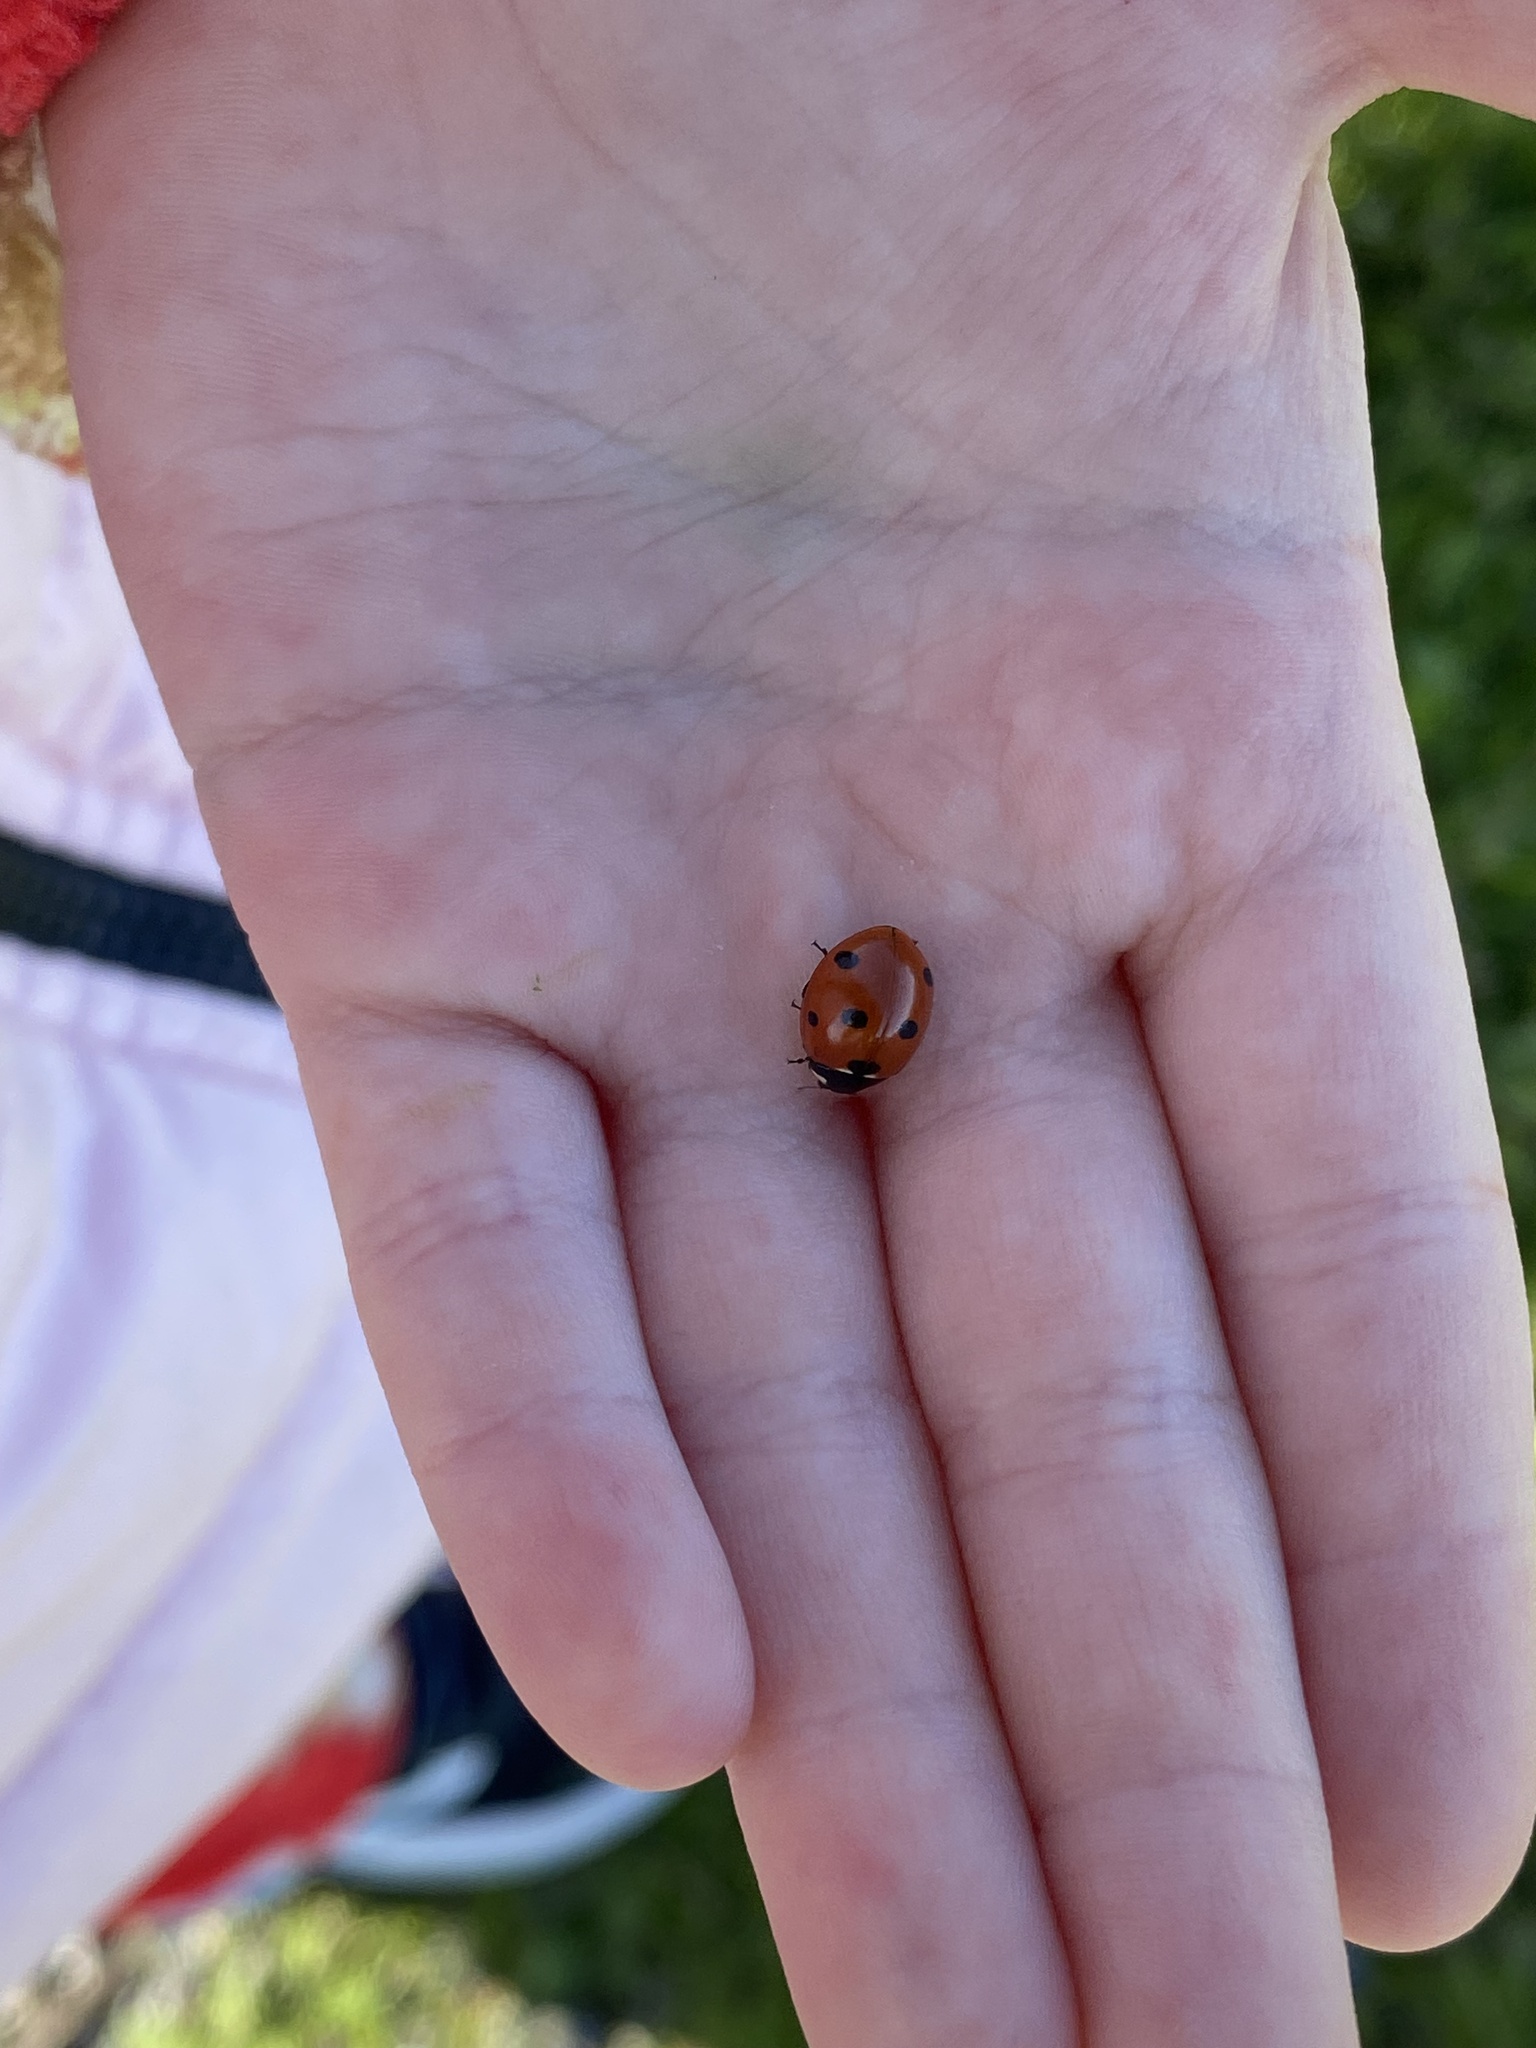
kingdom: Animalia
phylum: Arthropoda
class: Insecta
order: Coleoptera
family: Coccinellidae
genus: Coccinella
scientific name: Coccinella septempunctata
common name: Sevenspotted lady beetle
